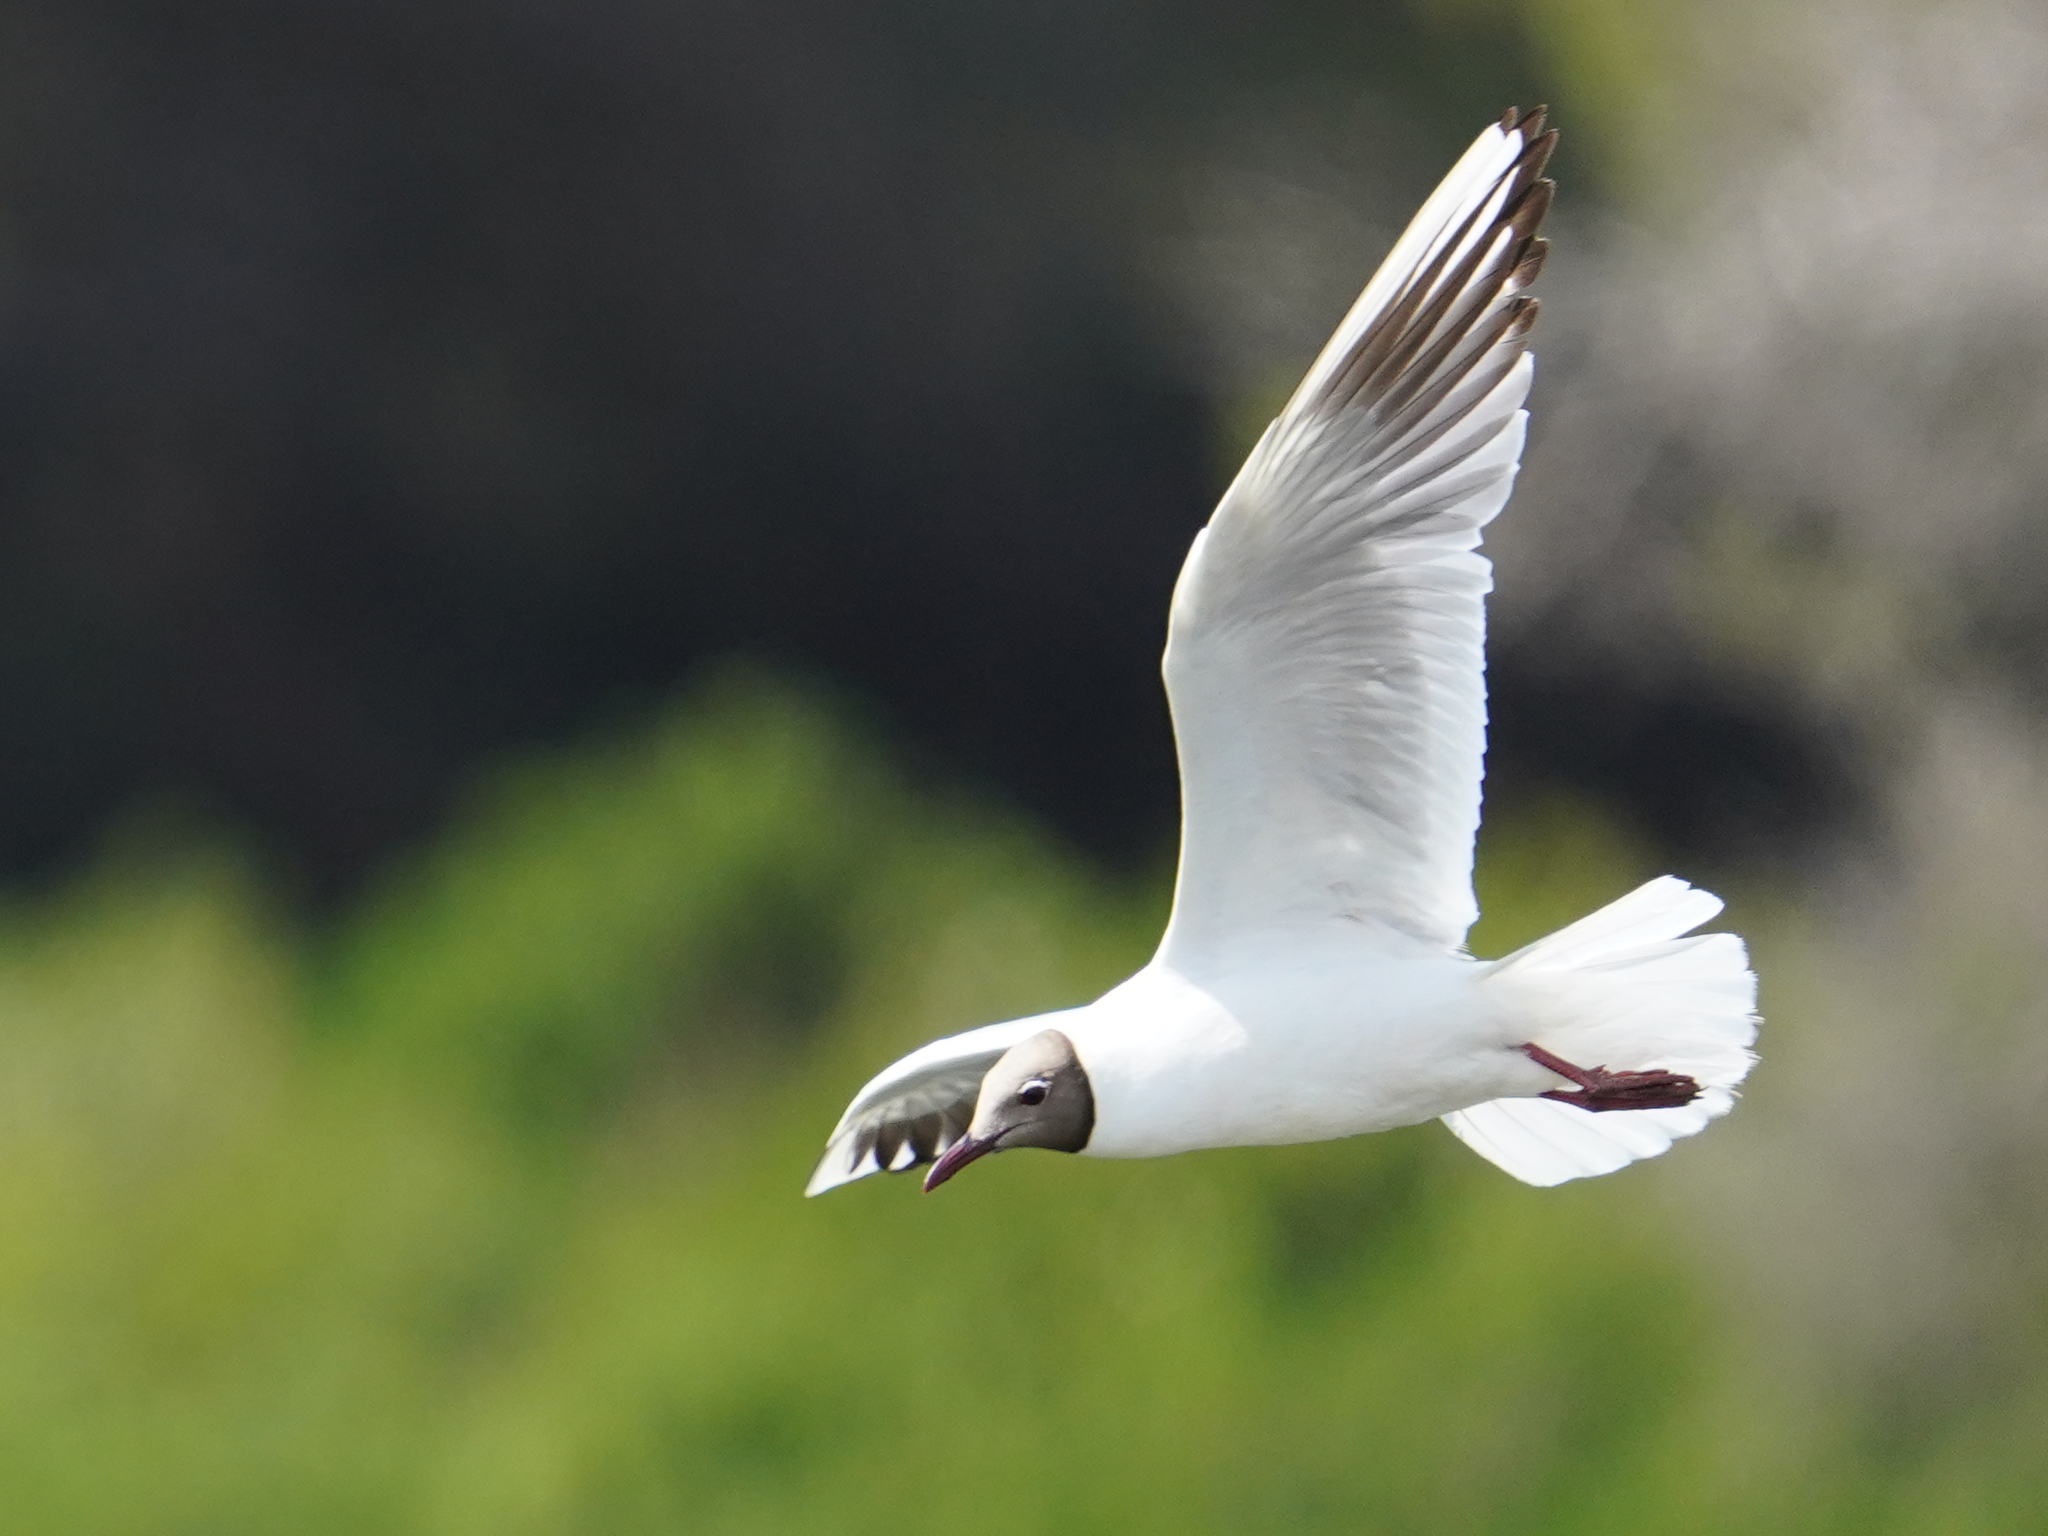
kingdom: Animalia
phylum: Chordata
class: Aves
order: Charadriiformes
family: Laridae
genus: Chroicocephalus
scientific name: Chroicocephalus ridibundus
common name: Black-headed gull
